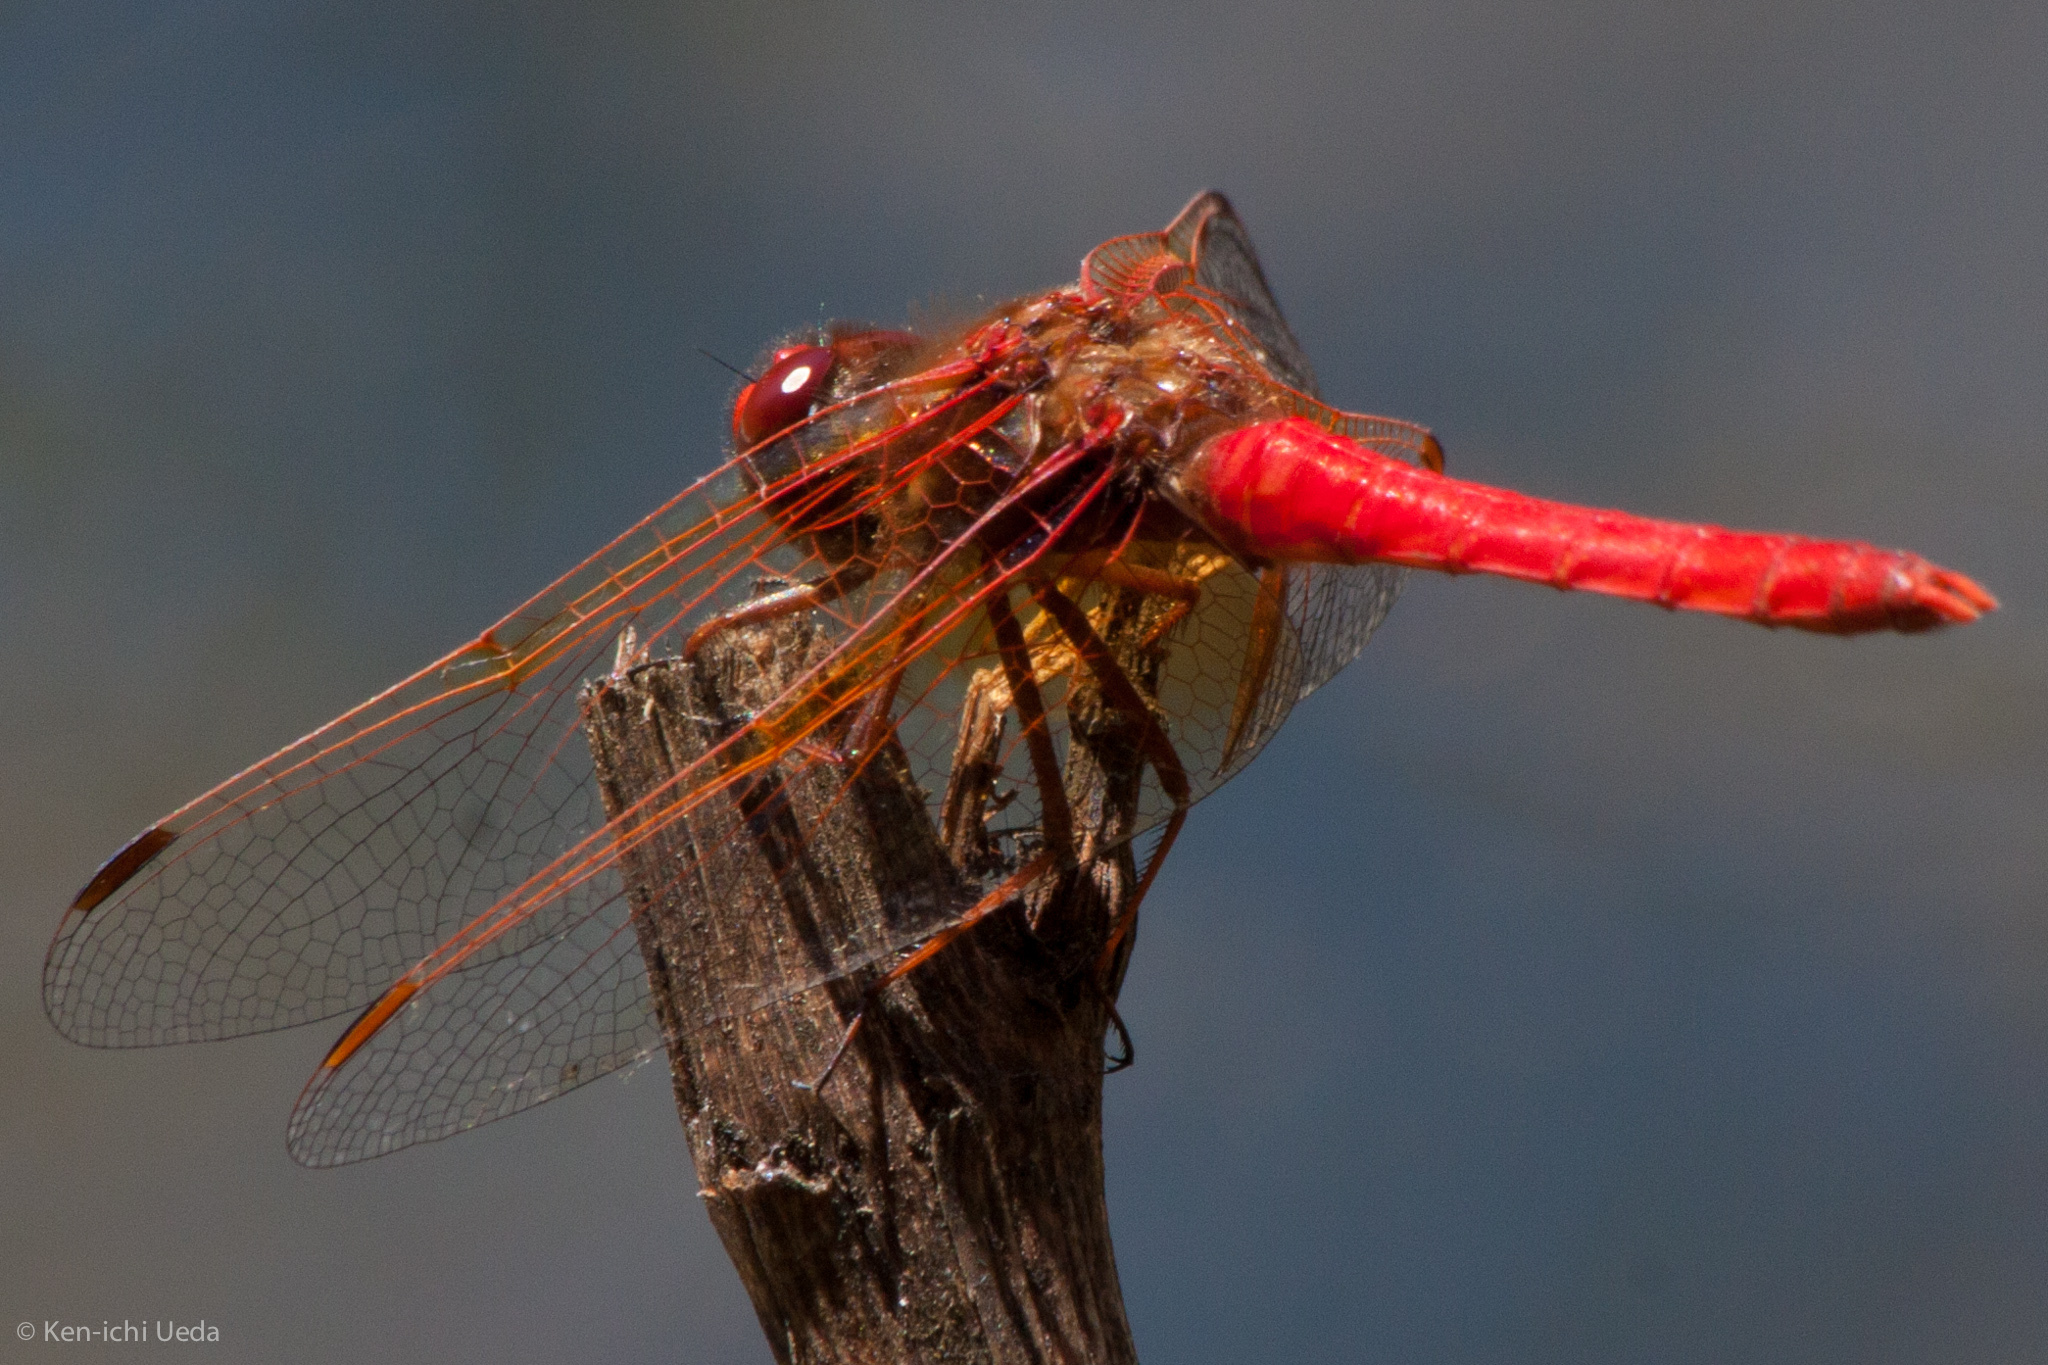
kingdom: Animalia
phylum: Arthropoda
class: Insecta
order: Odonata
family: Libellulidae
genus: Sympetrum
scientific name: Sympetrum illotum
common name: Cardinal meadowhawk
